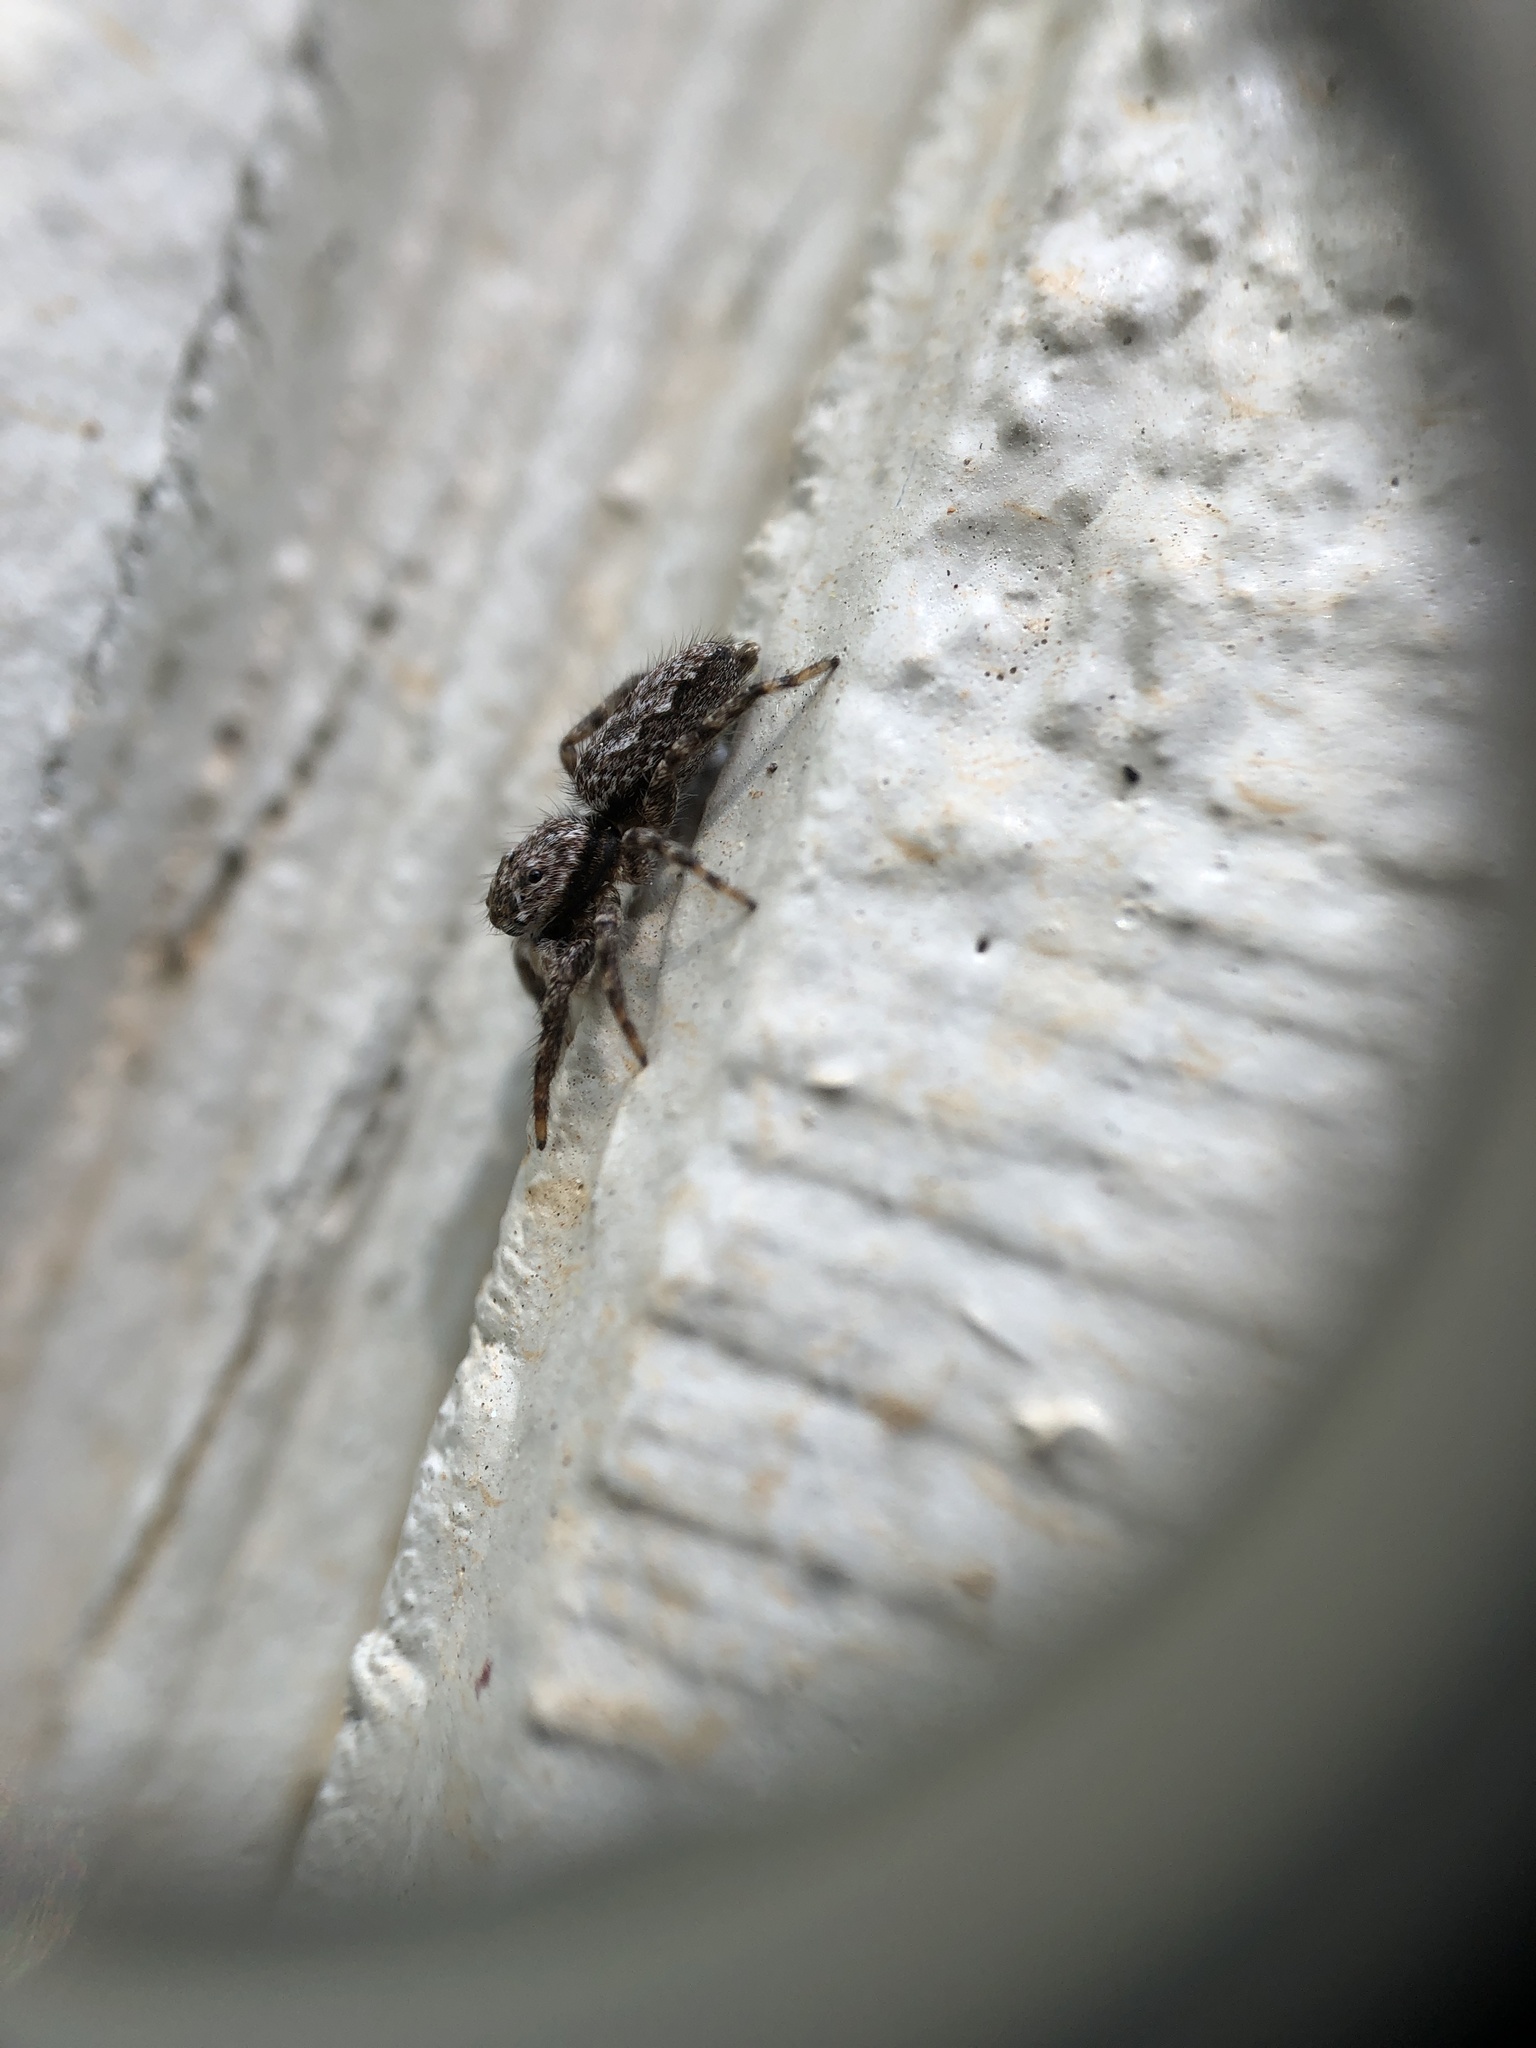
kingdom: Animalia
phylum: Arthropoda
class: Arachnida
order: Araneae
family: Salticidae
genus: Platycryptus
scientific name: Platycryptus undatus
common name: Tan jumping spider
